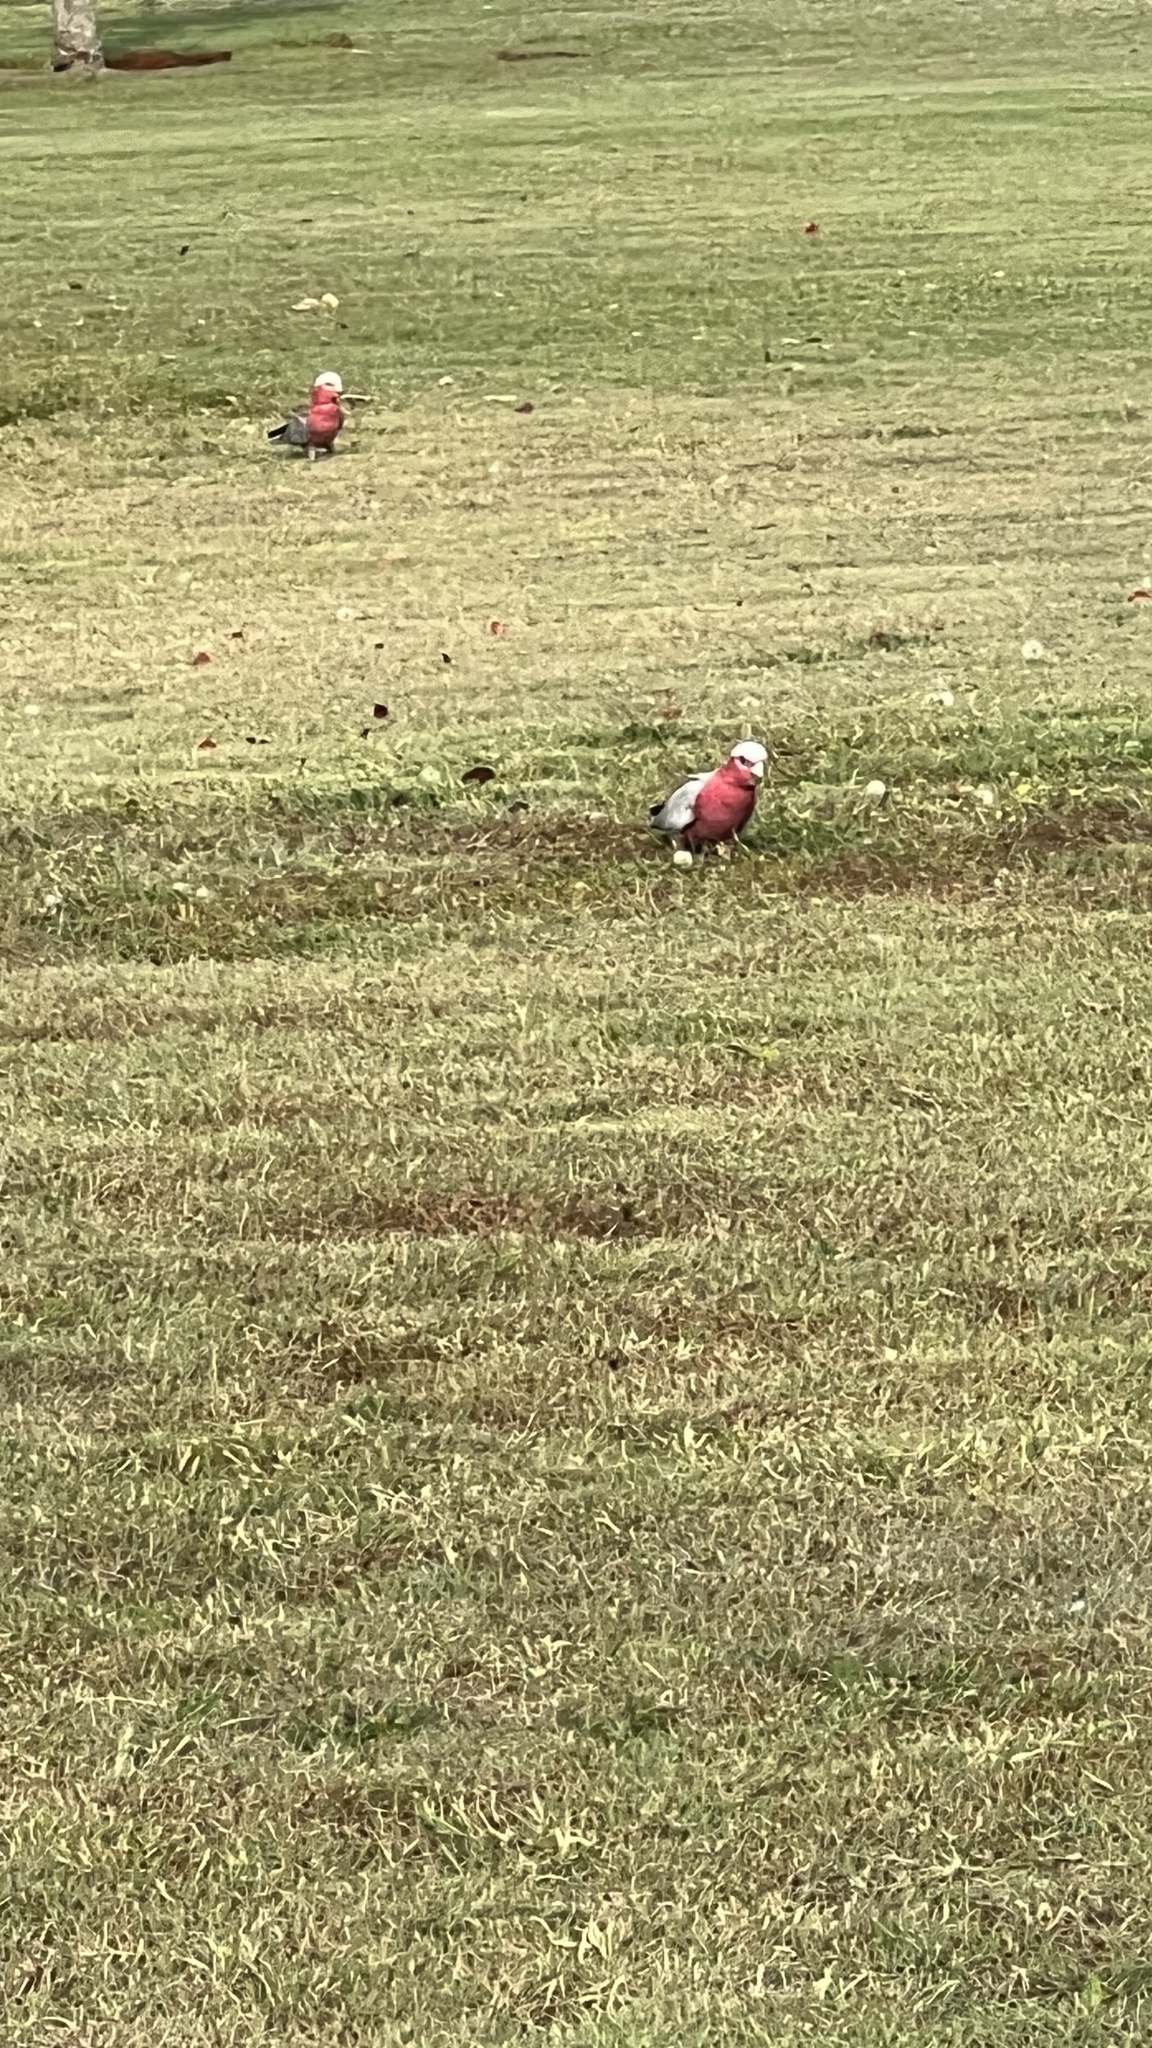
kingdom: Animalia
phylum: Chordata
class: Aves
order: Psittaciformes
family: Psittacidae
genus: Eolophus
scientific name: Eolophus roseicapilla
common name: Galah
